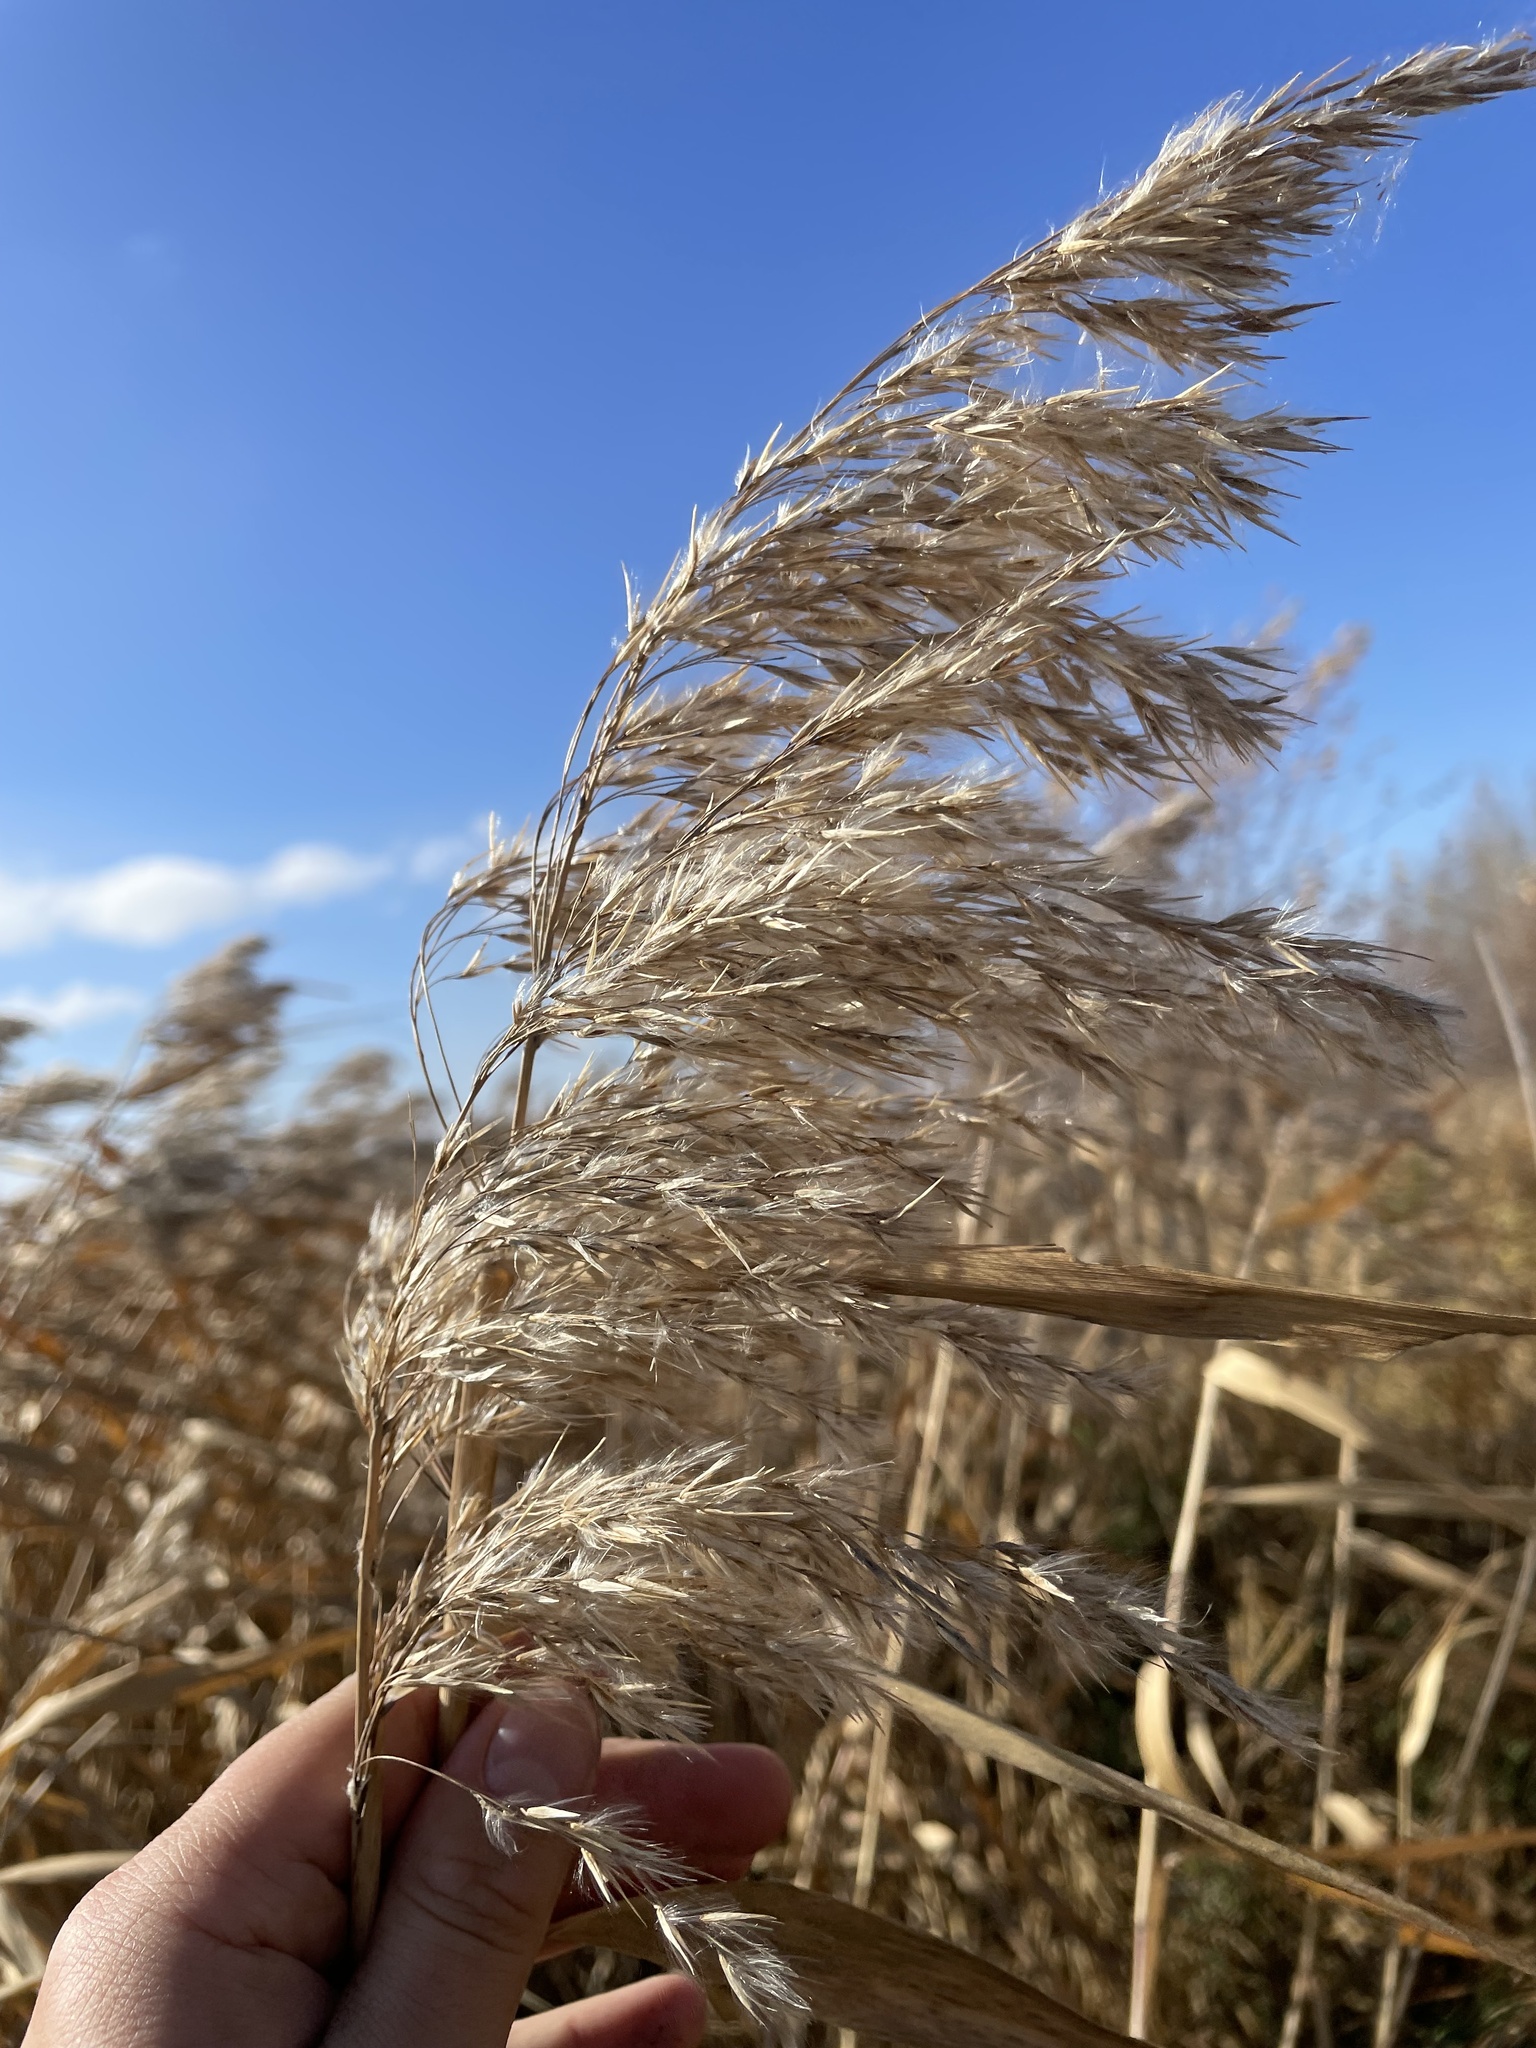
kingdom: Plantae
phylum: Tracheophyta
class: Liliopsida
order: Poales
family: Poaceae
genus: Phragmites
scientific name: Phragmites australis
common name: Common reed
